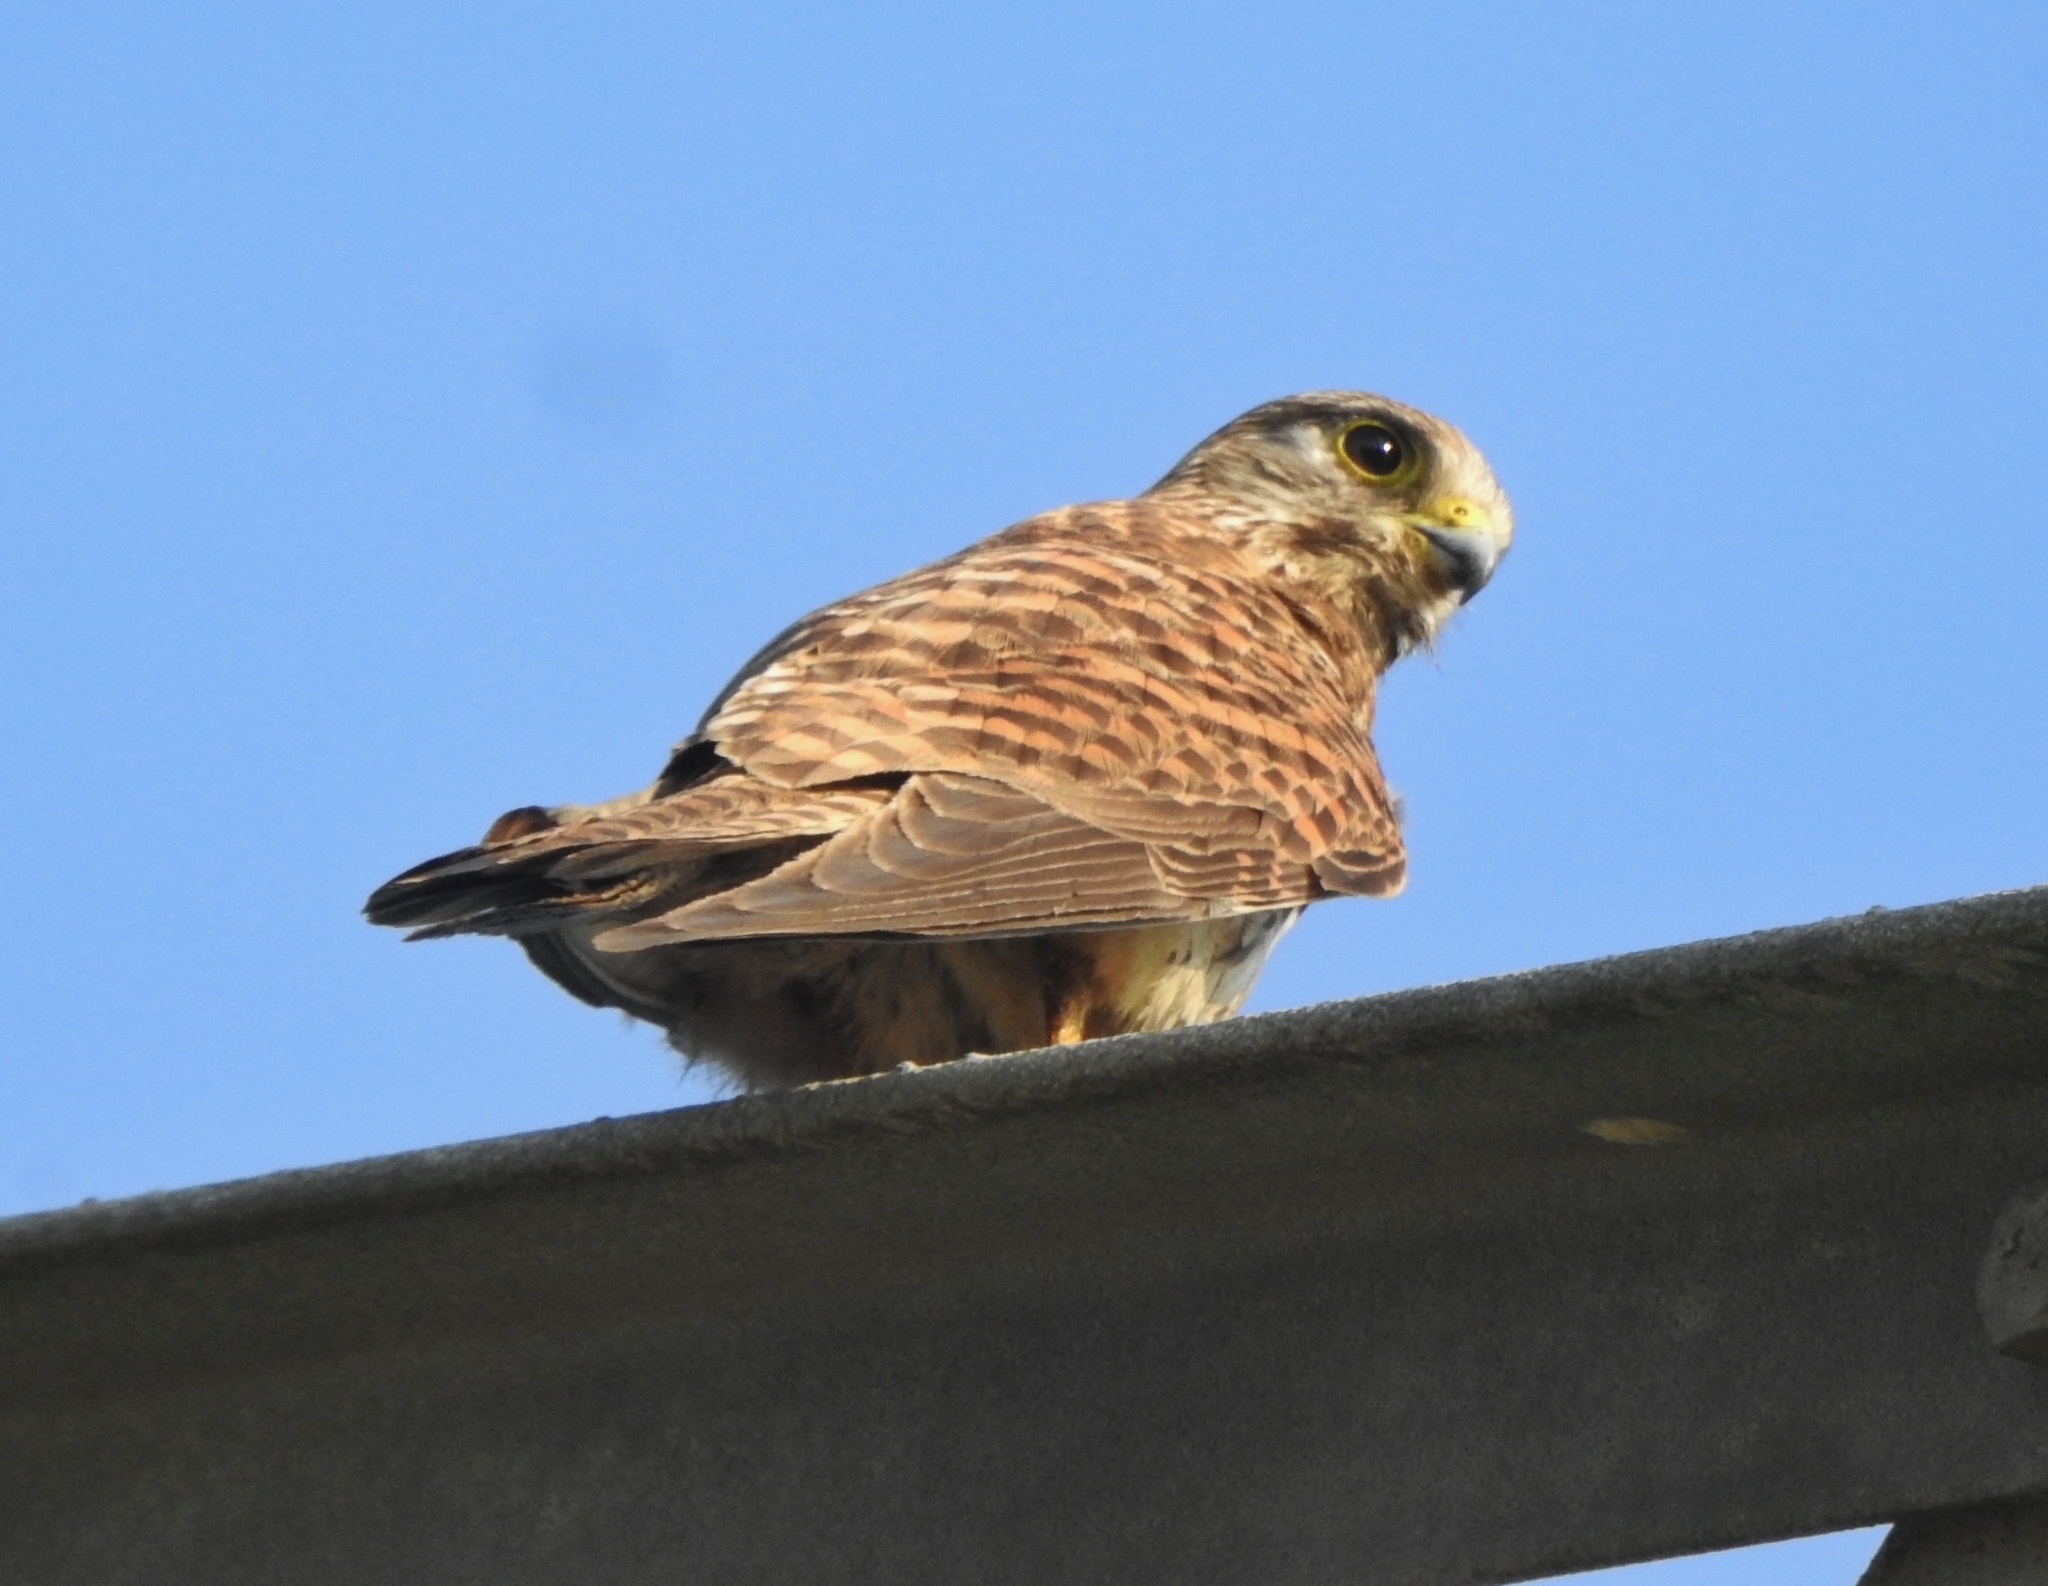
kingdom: Animalia
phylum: Chordata
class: Aves
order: Falconiformes
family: Falconidae
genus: Falco
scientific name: Falco tinnunculus
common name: Common kestrel
